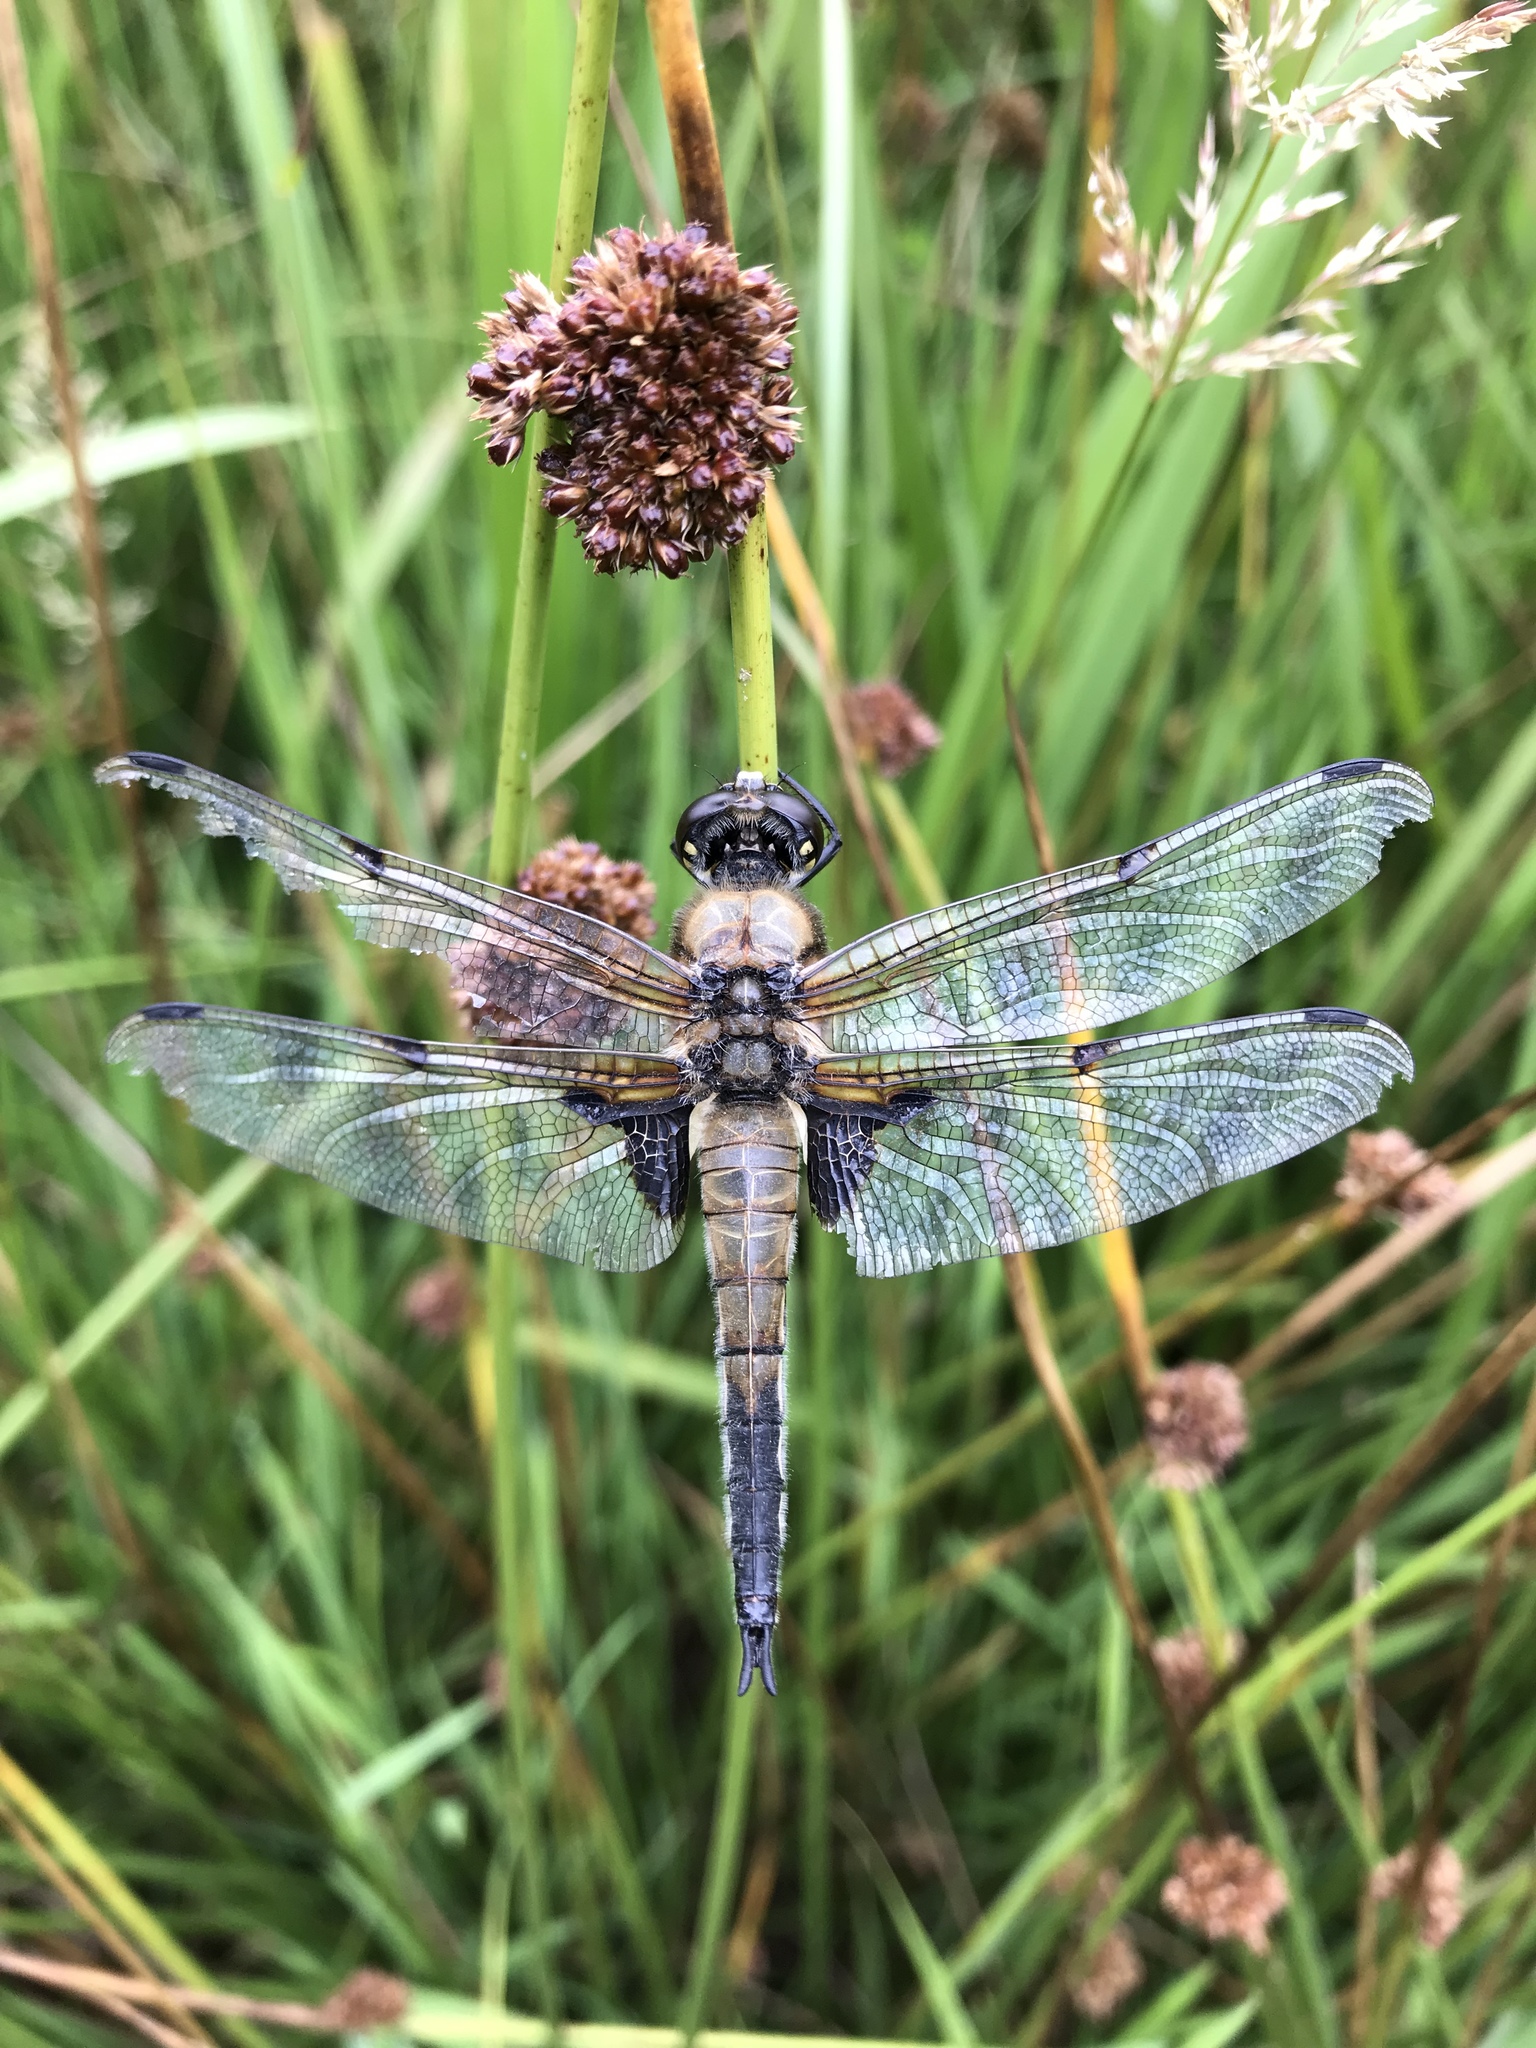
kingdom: Animalia
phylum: Arthropoda
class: Insecta
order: Odonata
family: Libellulidae
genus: Libellula
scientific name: Libellula quadrimaculata
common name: Four-spotted chaser
